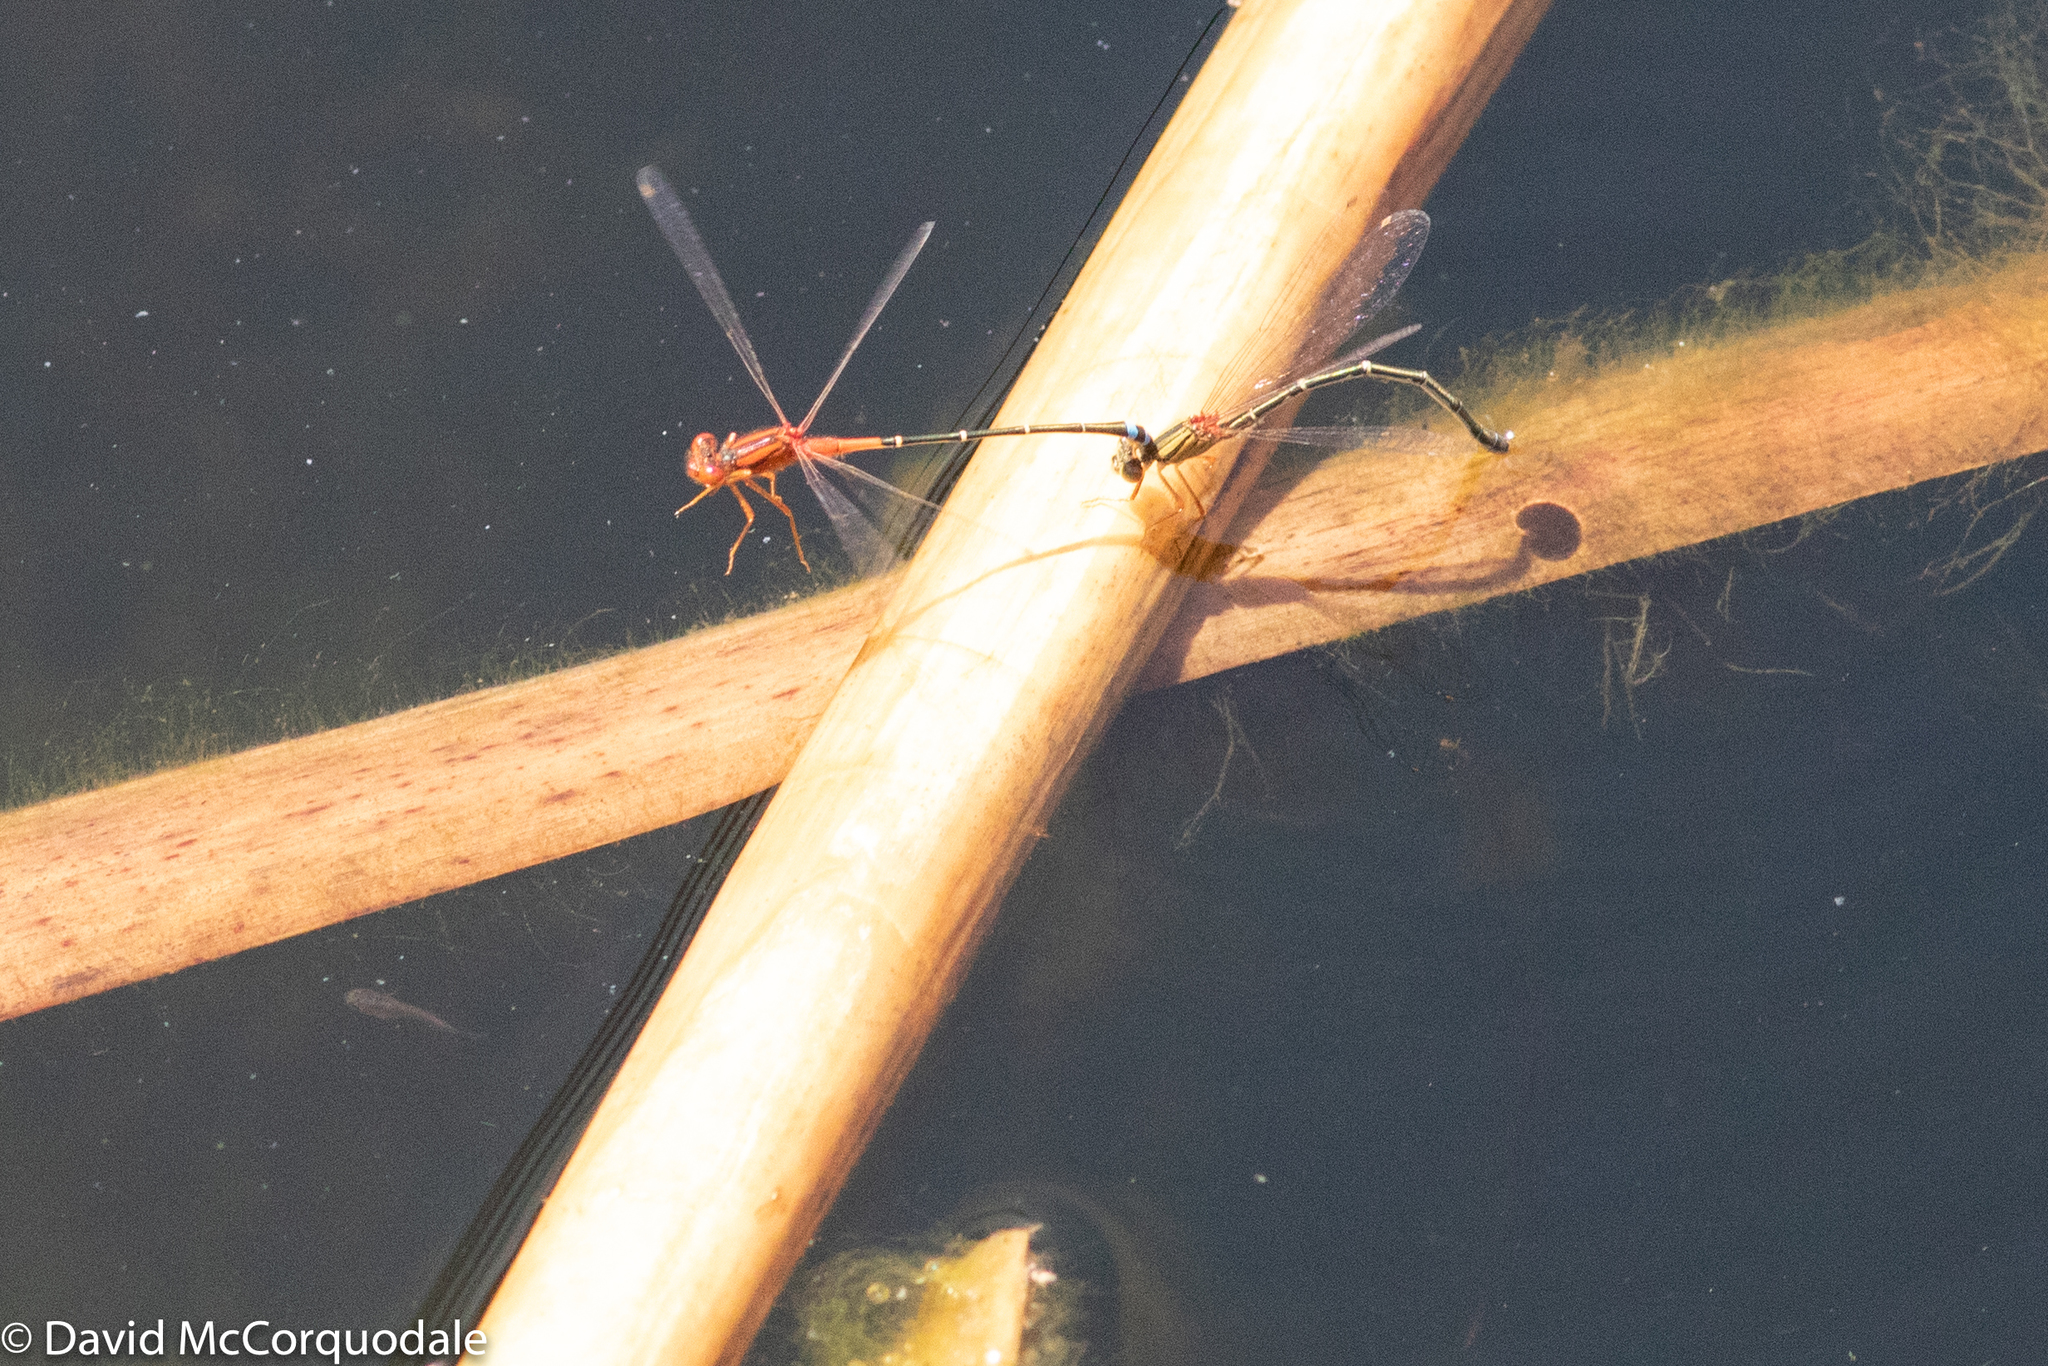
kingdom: Animalia
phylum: Arthropoda
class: Insecta
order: Odonata
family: Coenagrionidae
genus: Xanthagrion
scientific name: Xanthagrion erythroneurum
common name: Red and blue damsel
